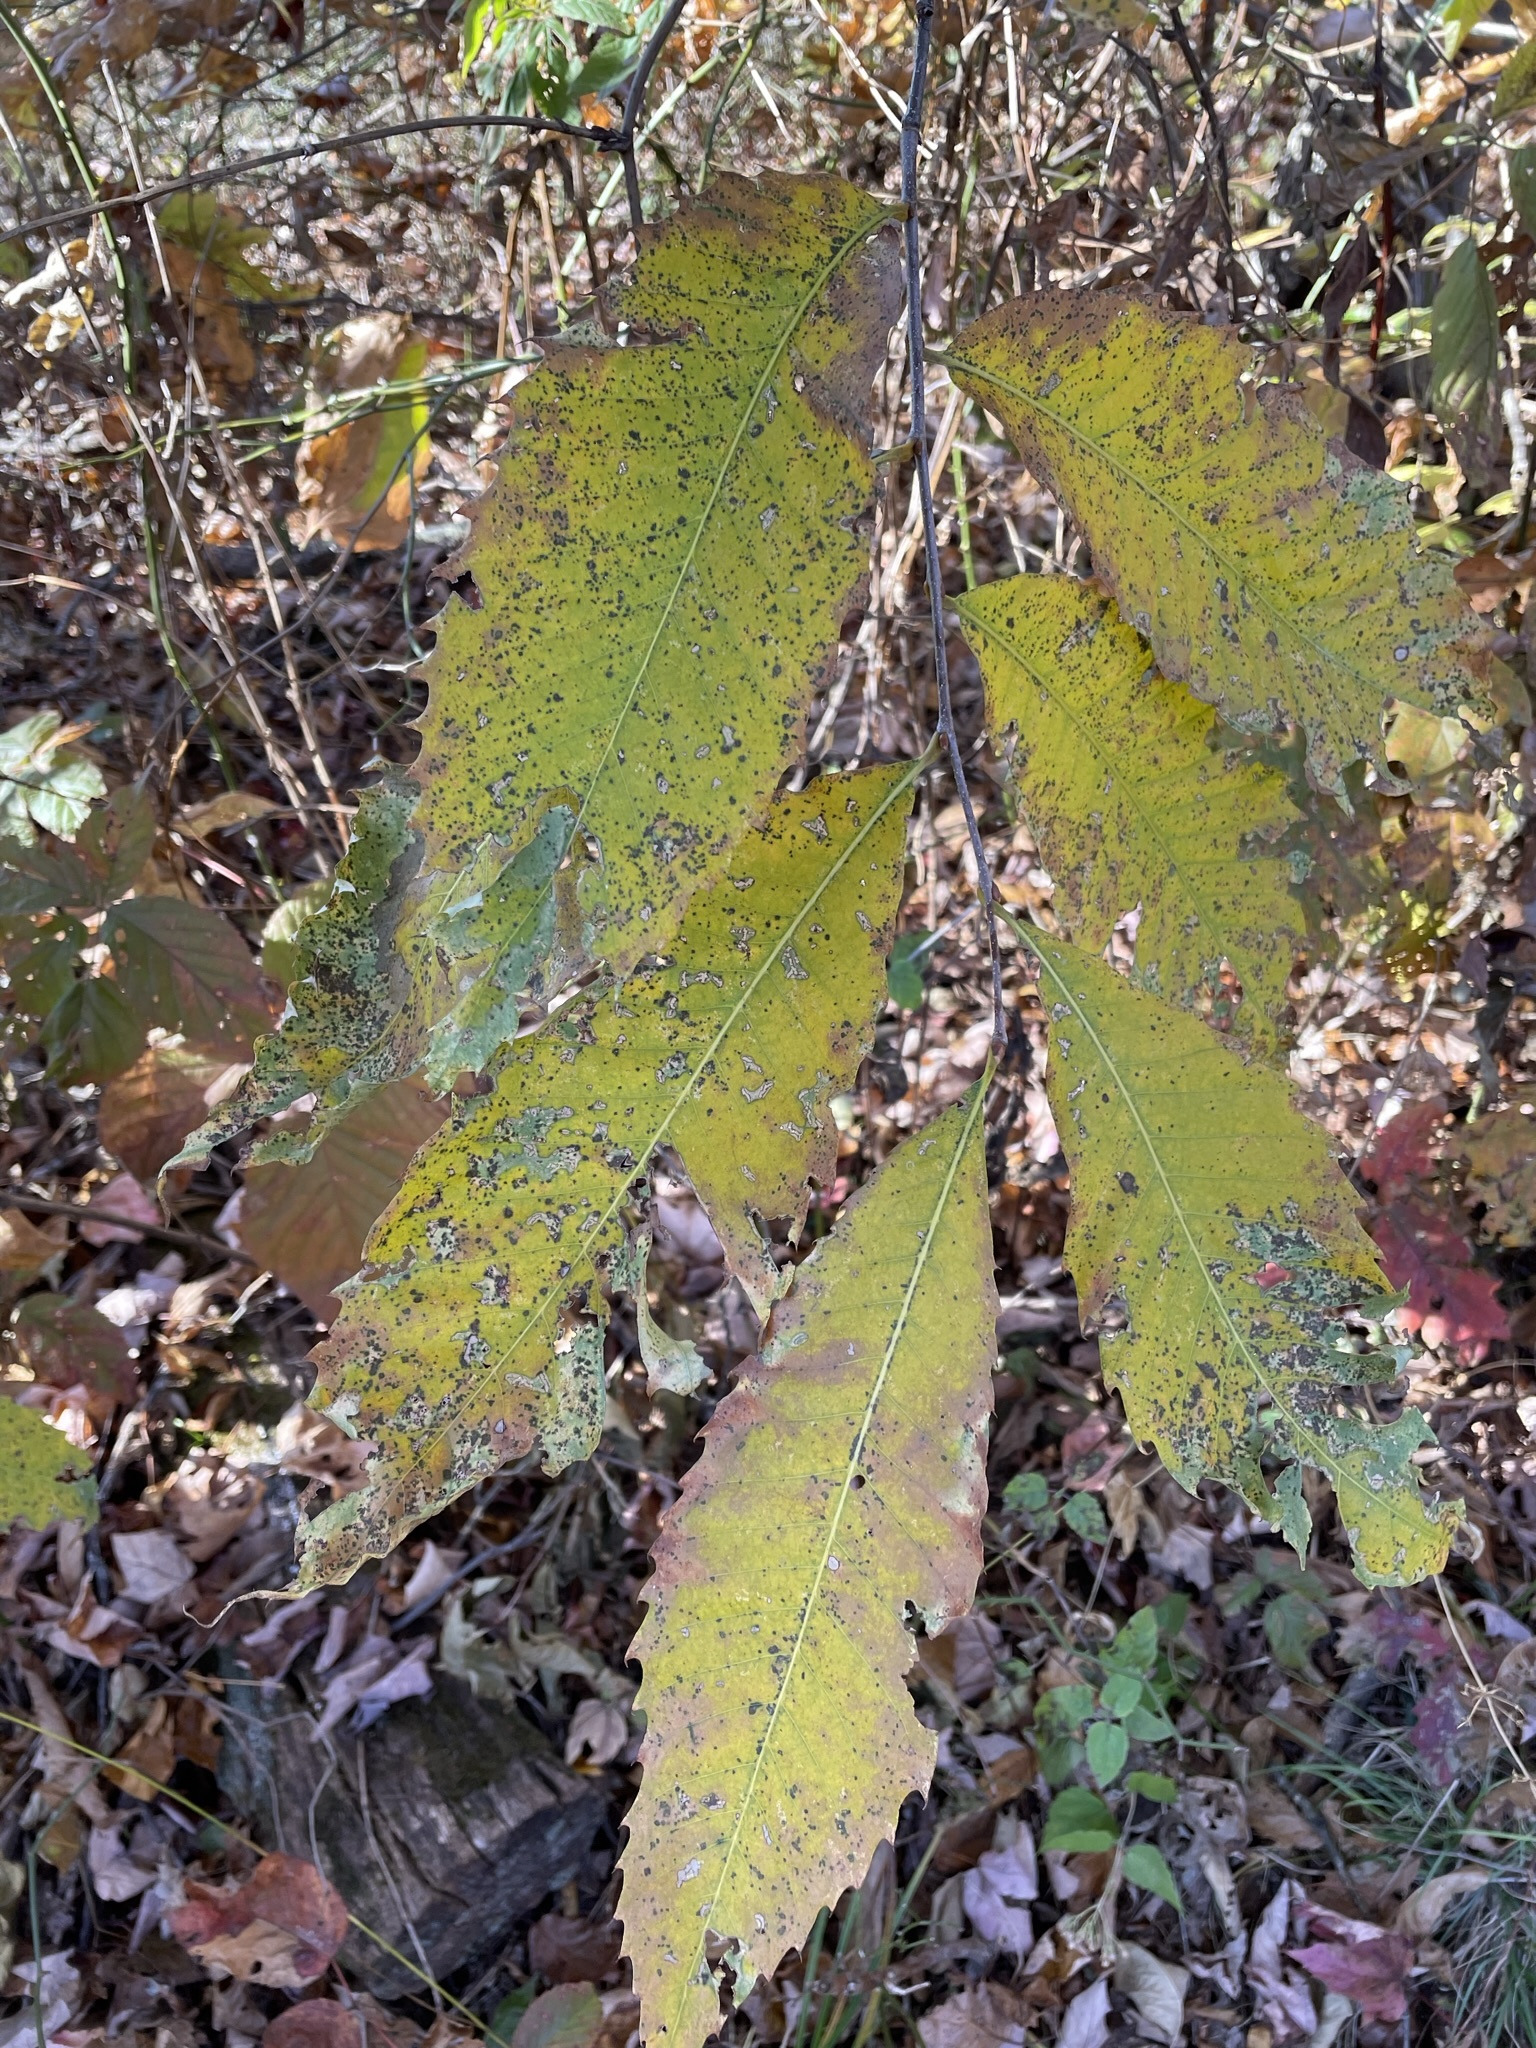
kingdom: Plantae
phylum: Tracheophyta
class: Magnoliopsida
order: Fagales
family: Fagaceae
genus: Castanea
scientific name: Castanea dentata
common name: American chestnut
